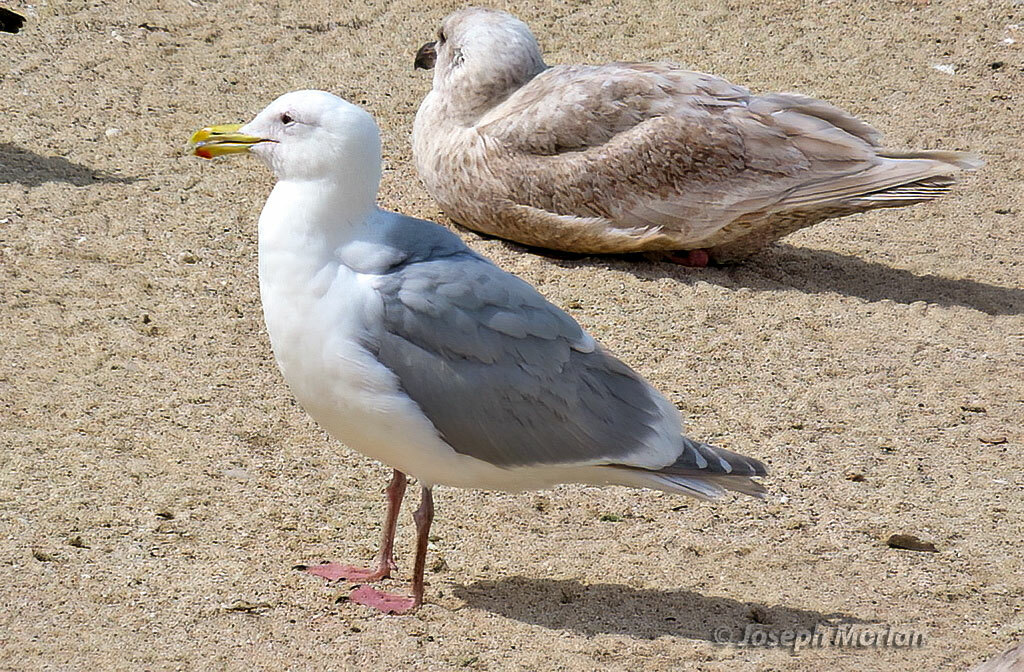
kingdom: Animalia
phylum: Chordata
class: Aves
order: Charadriiformes
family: Laridae
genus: Larus
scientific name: Larus glaucescens
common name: Glaucous-winged gull
